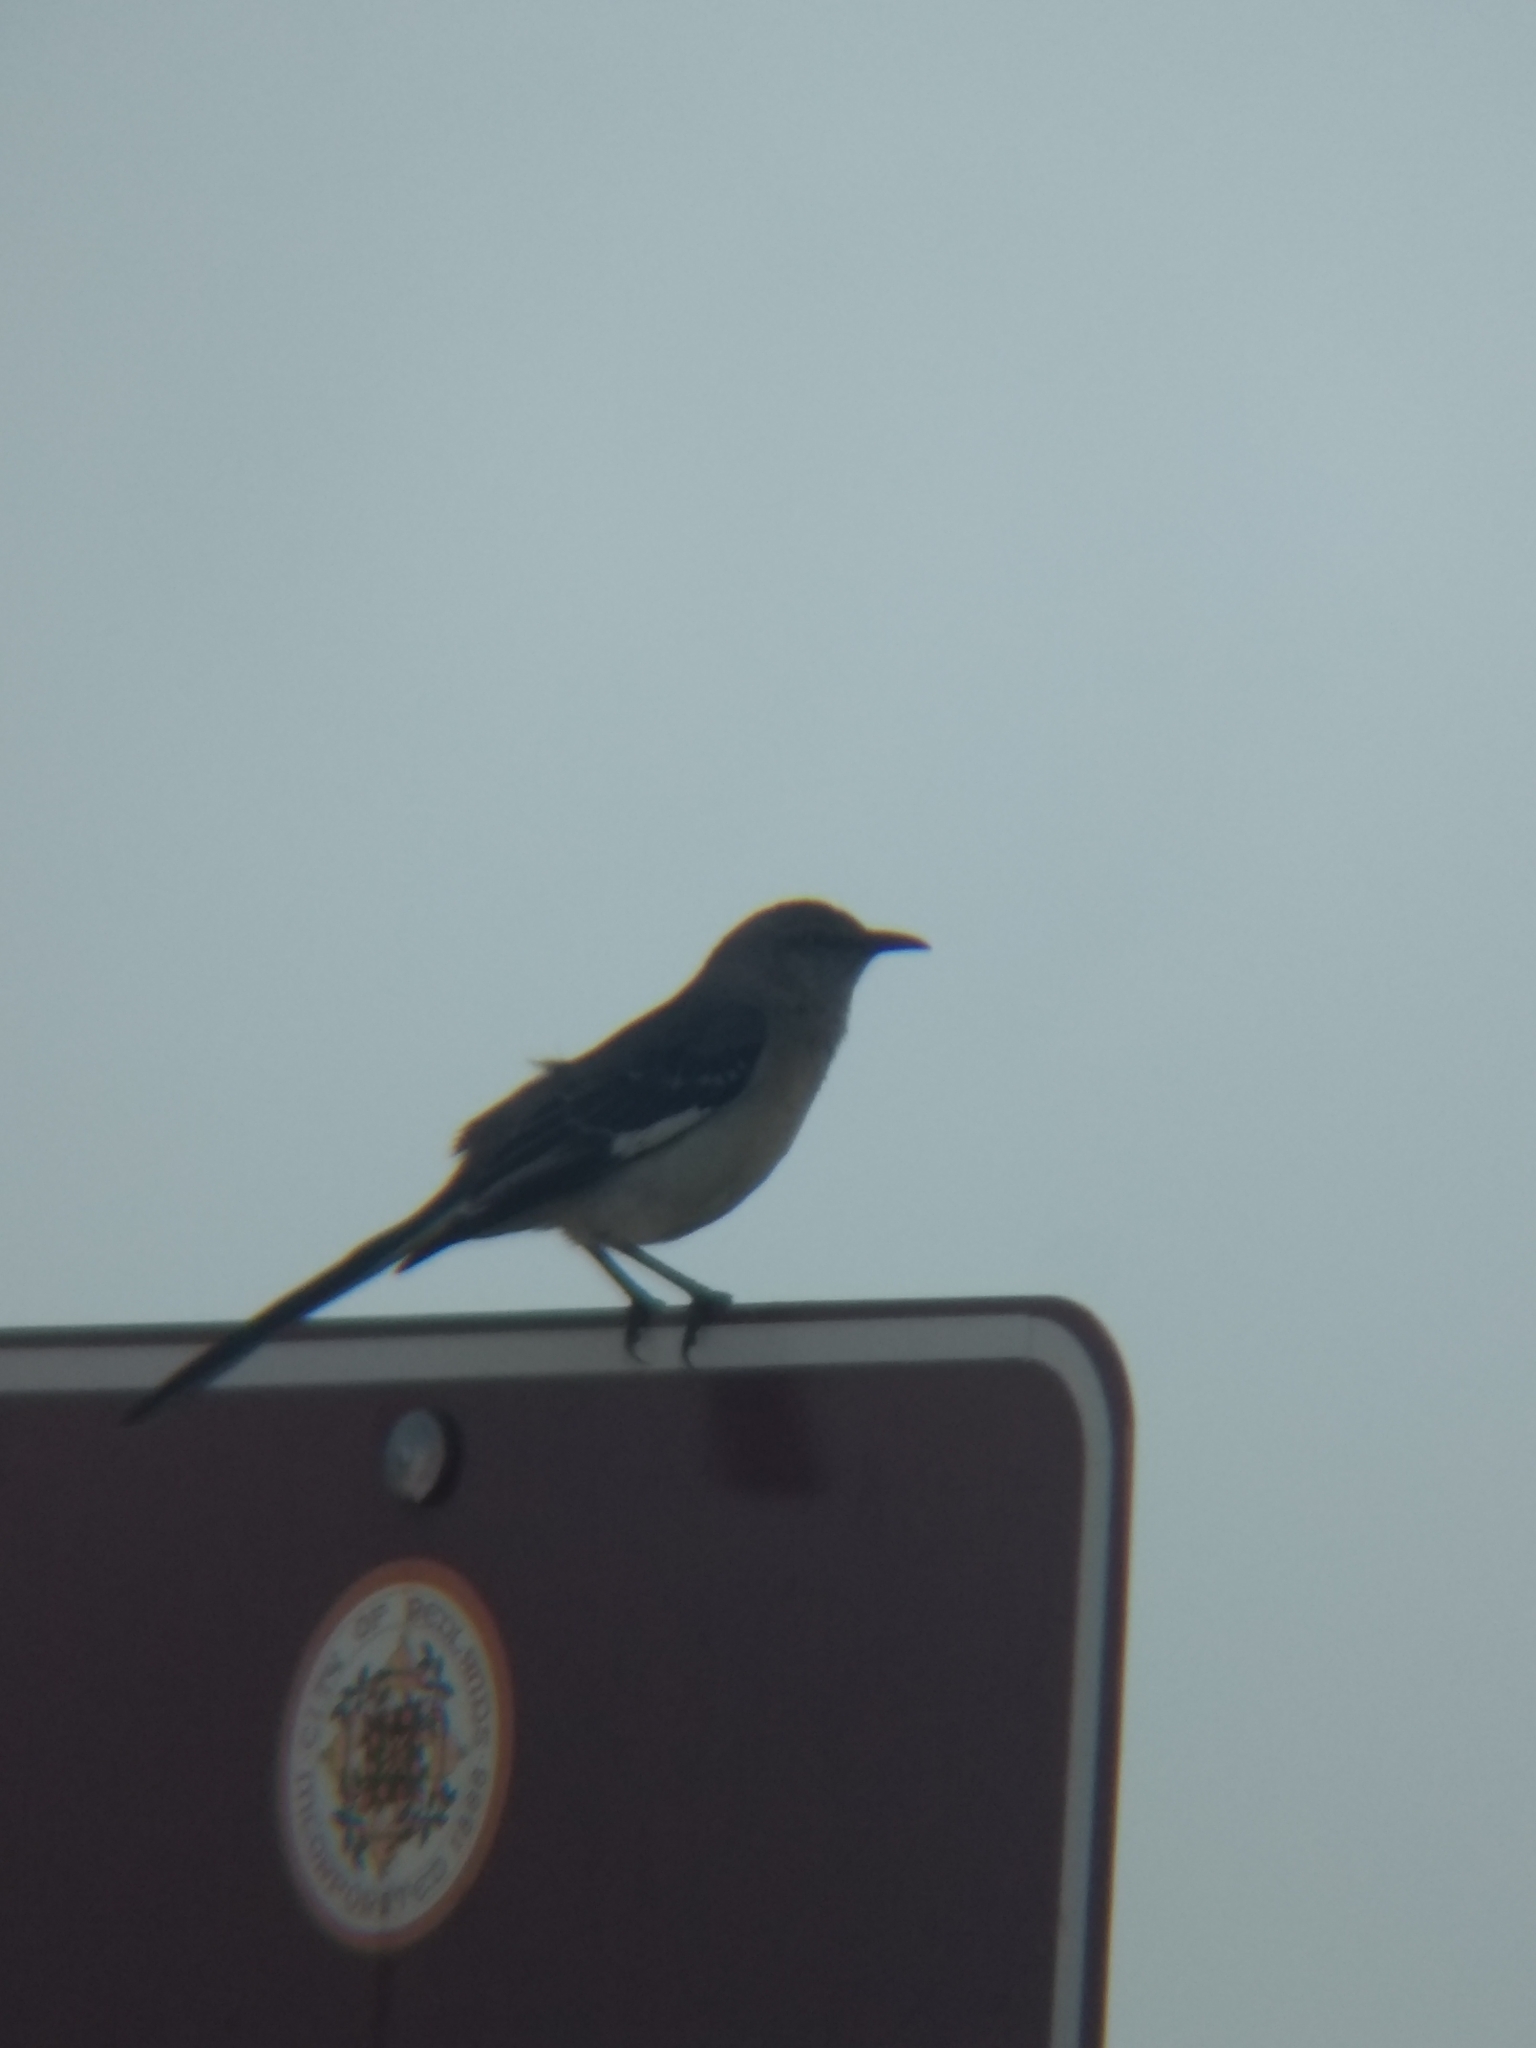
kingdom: Animalia
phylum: Chordata
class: Aves
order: Passeriformes
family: Mimidae
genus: Mimus
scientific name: Mimus polyglottos
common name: Northern mockingbird
